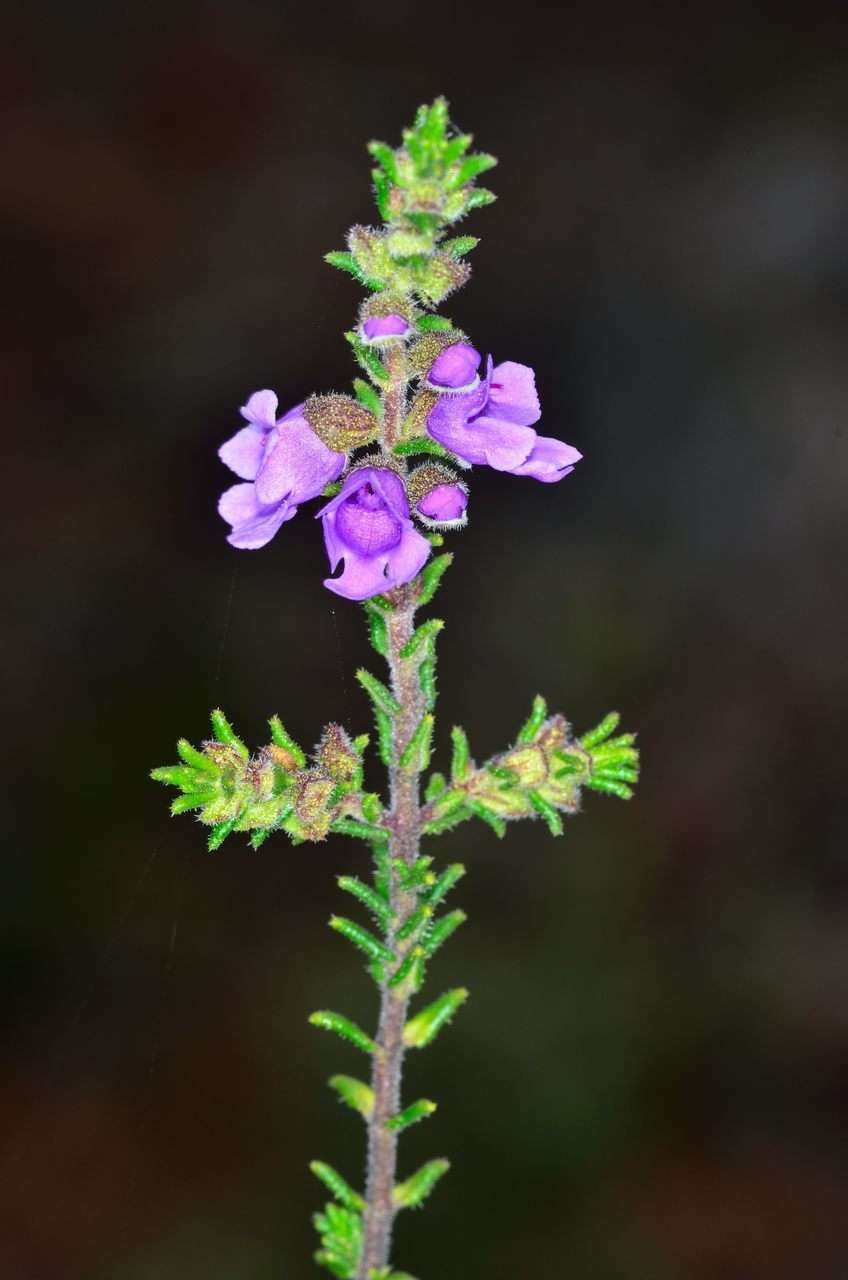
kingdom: Plantae
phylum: Tracheophyta
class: Magnoliopsida
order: Lamiales
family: Lamiaceae
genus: Prostanthera
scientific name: Prostanthera decussata
